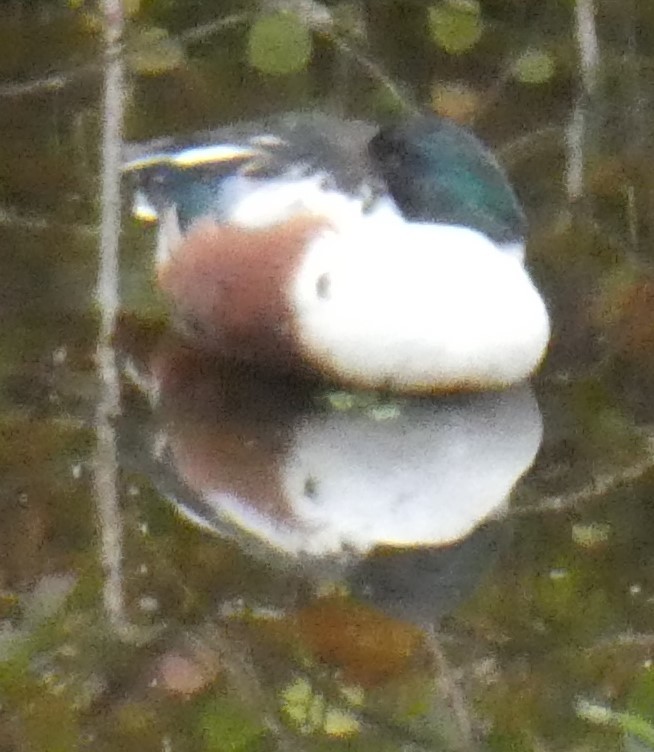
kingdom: Animalia
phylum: Chordata
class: Aves
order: Anseriformes
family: Anatidae
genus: Spatula
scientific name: Spatula clypeata
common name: Northern shoveler
